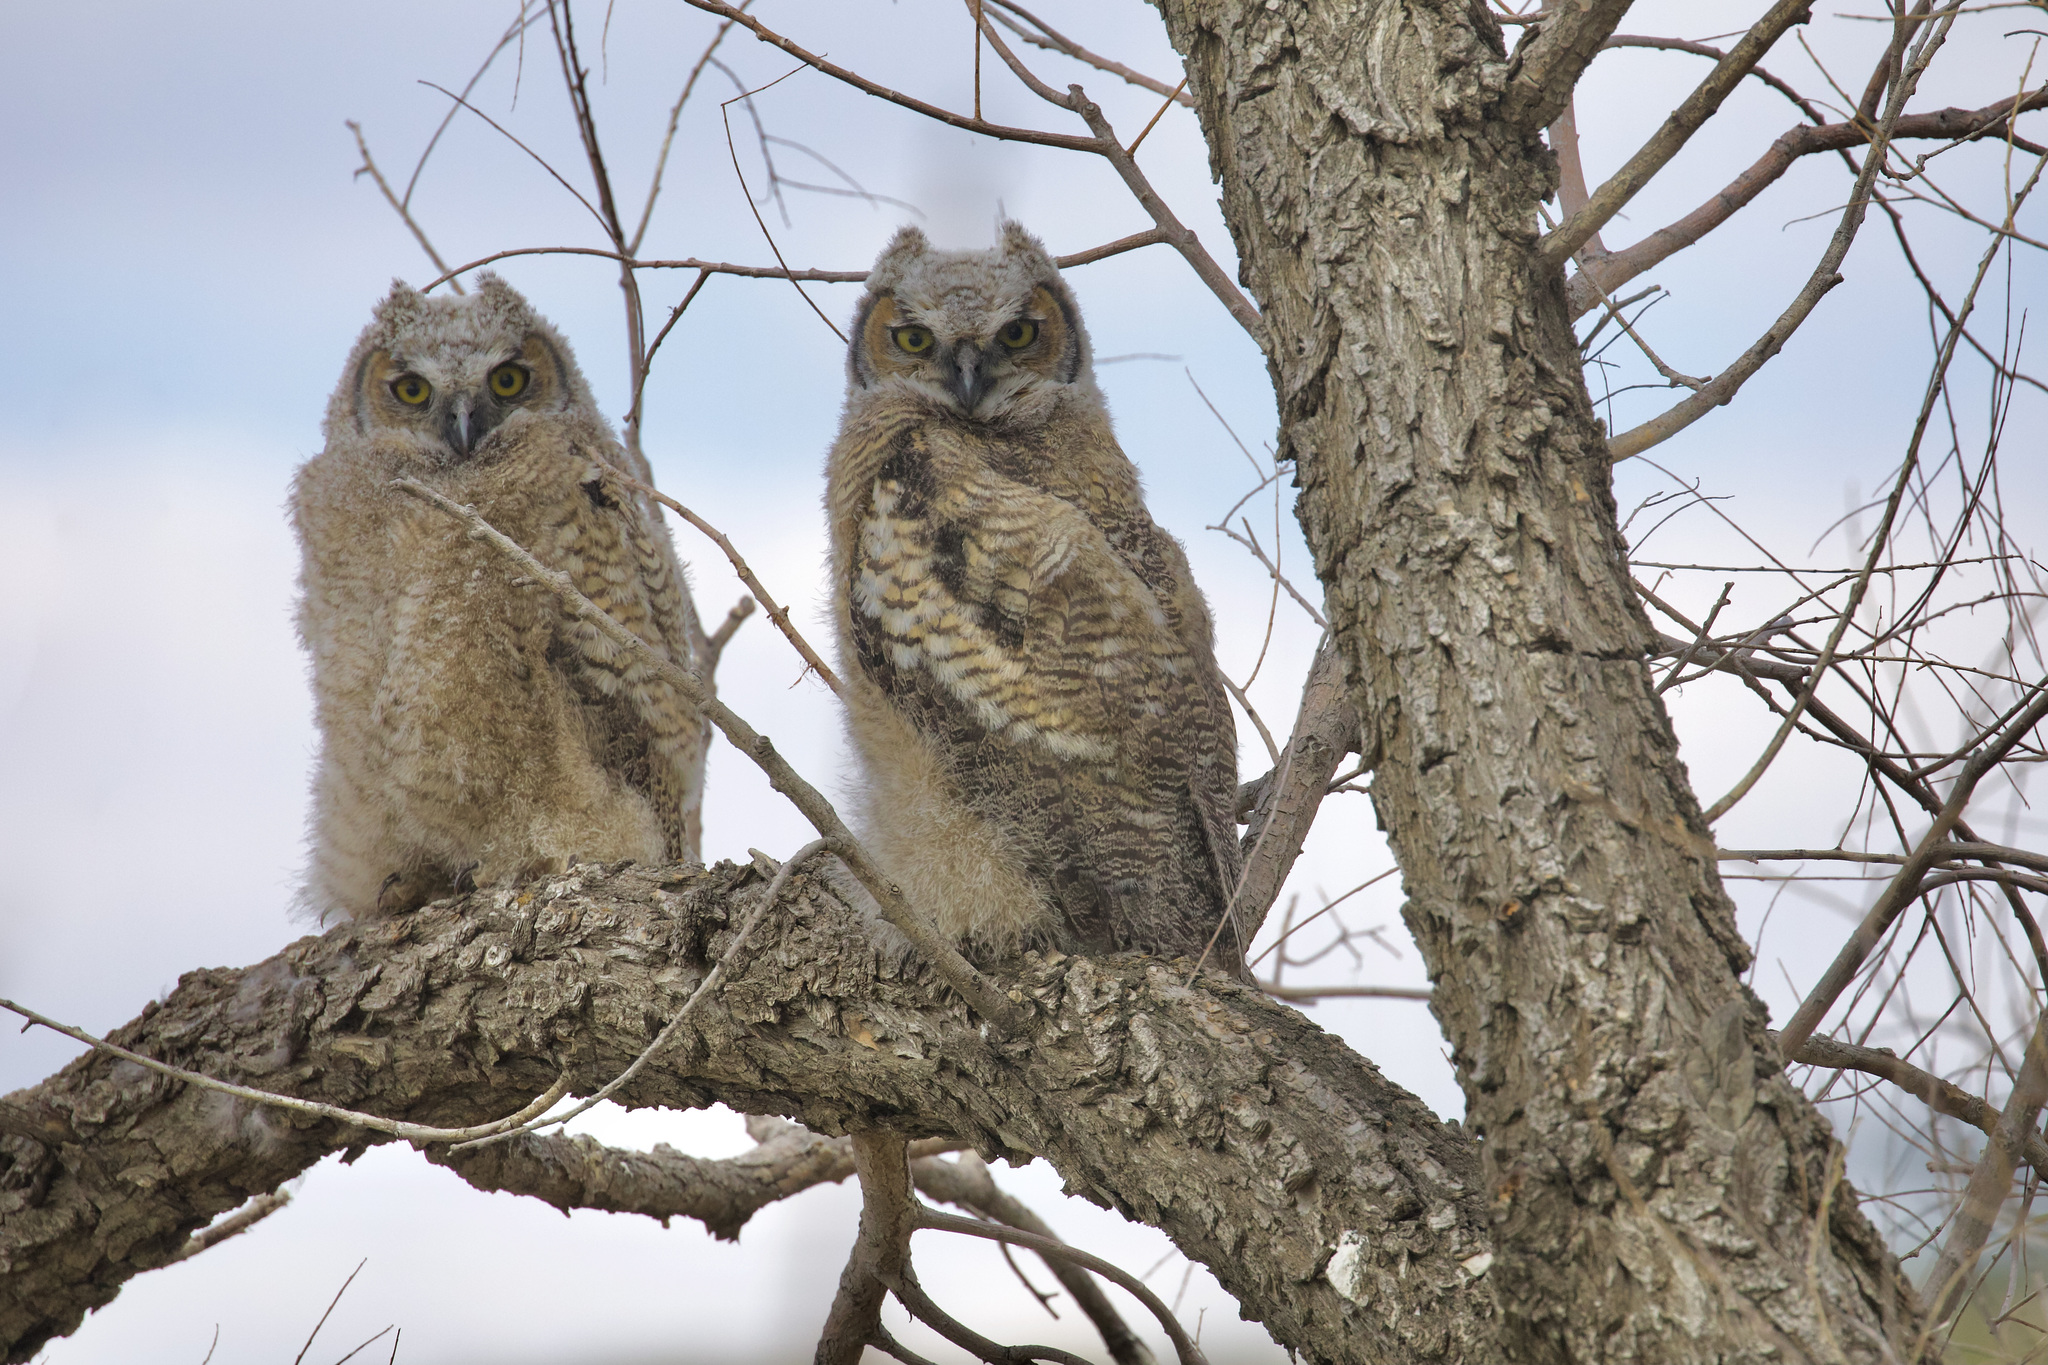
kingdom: Animalia
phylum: Chordata
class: Aves
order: Strigiformes
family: Strigidae
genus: Bubo
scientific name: Bubo virginianus
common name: Great horned owl
